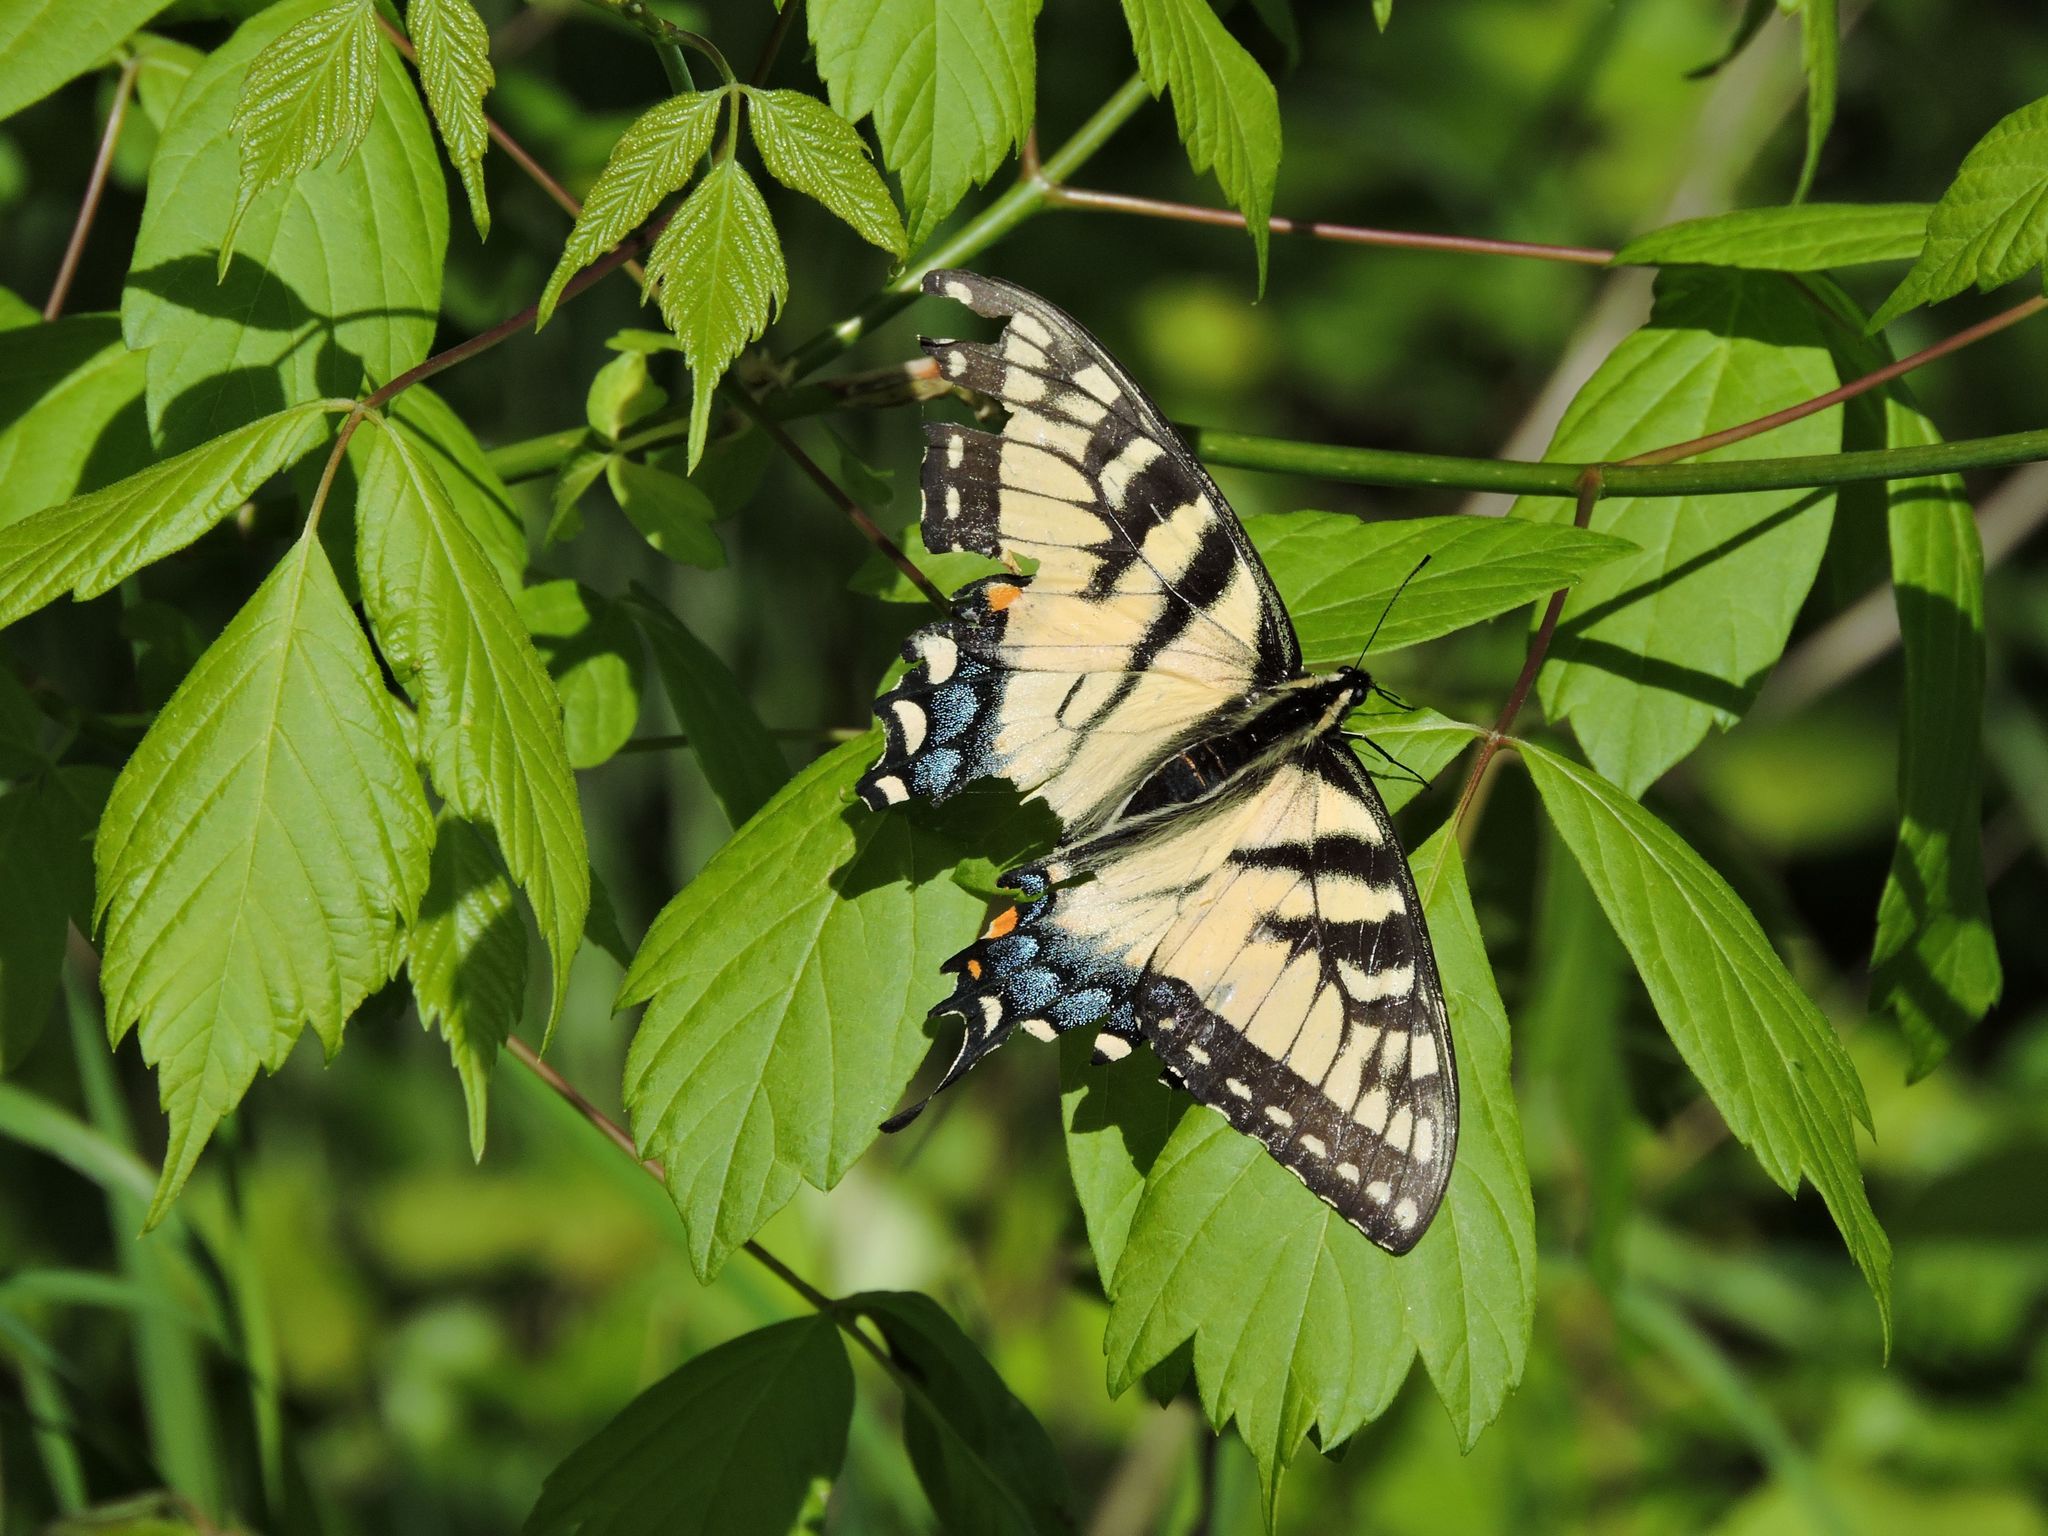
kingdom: Animalia
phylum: Arthropoda
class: Insecta
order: Lepidoptera
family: Papilionidae
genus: Papilio
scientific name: Papilio glaucus
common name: Tiger swallowtail
